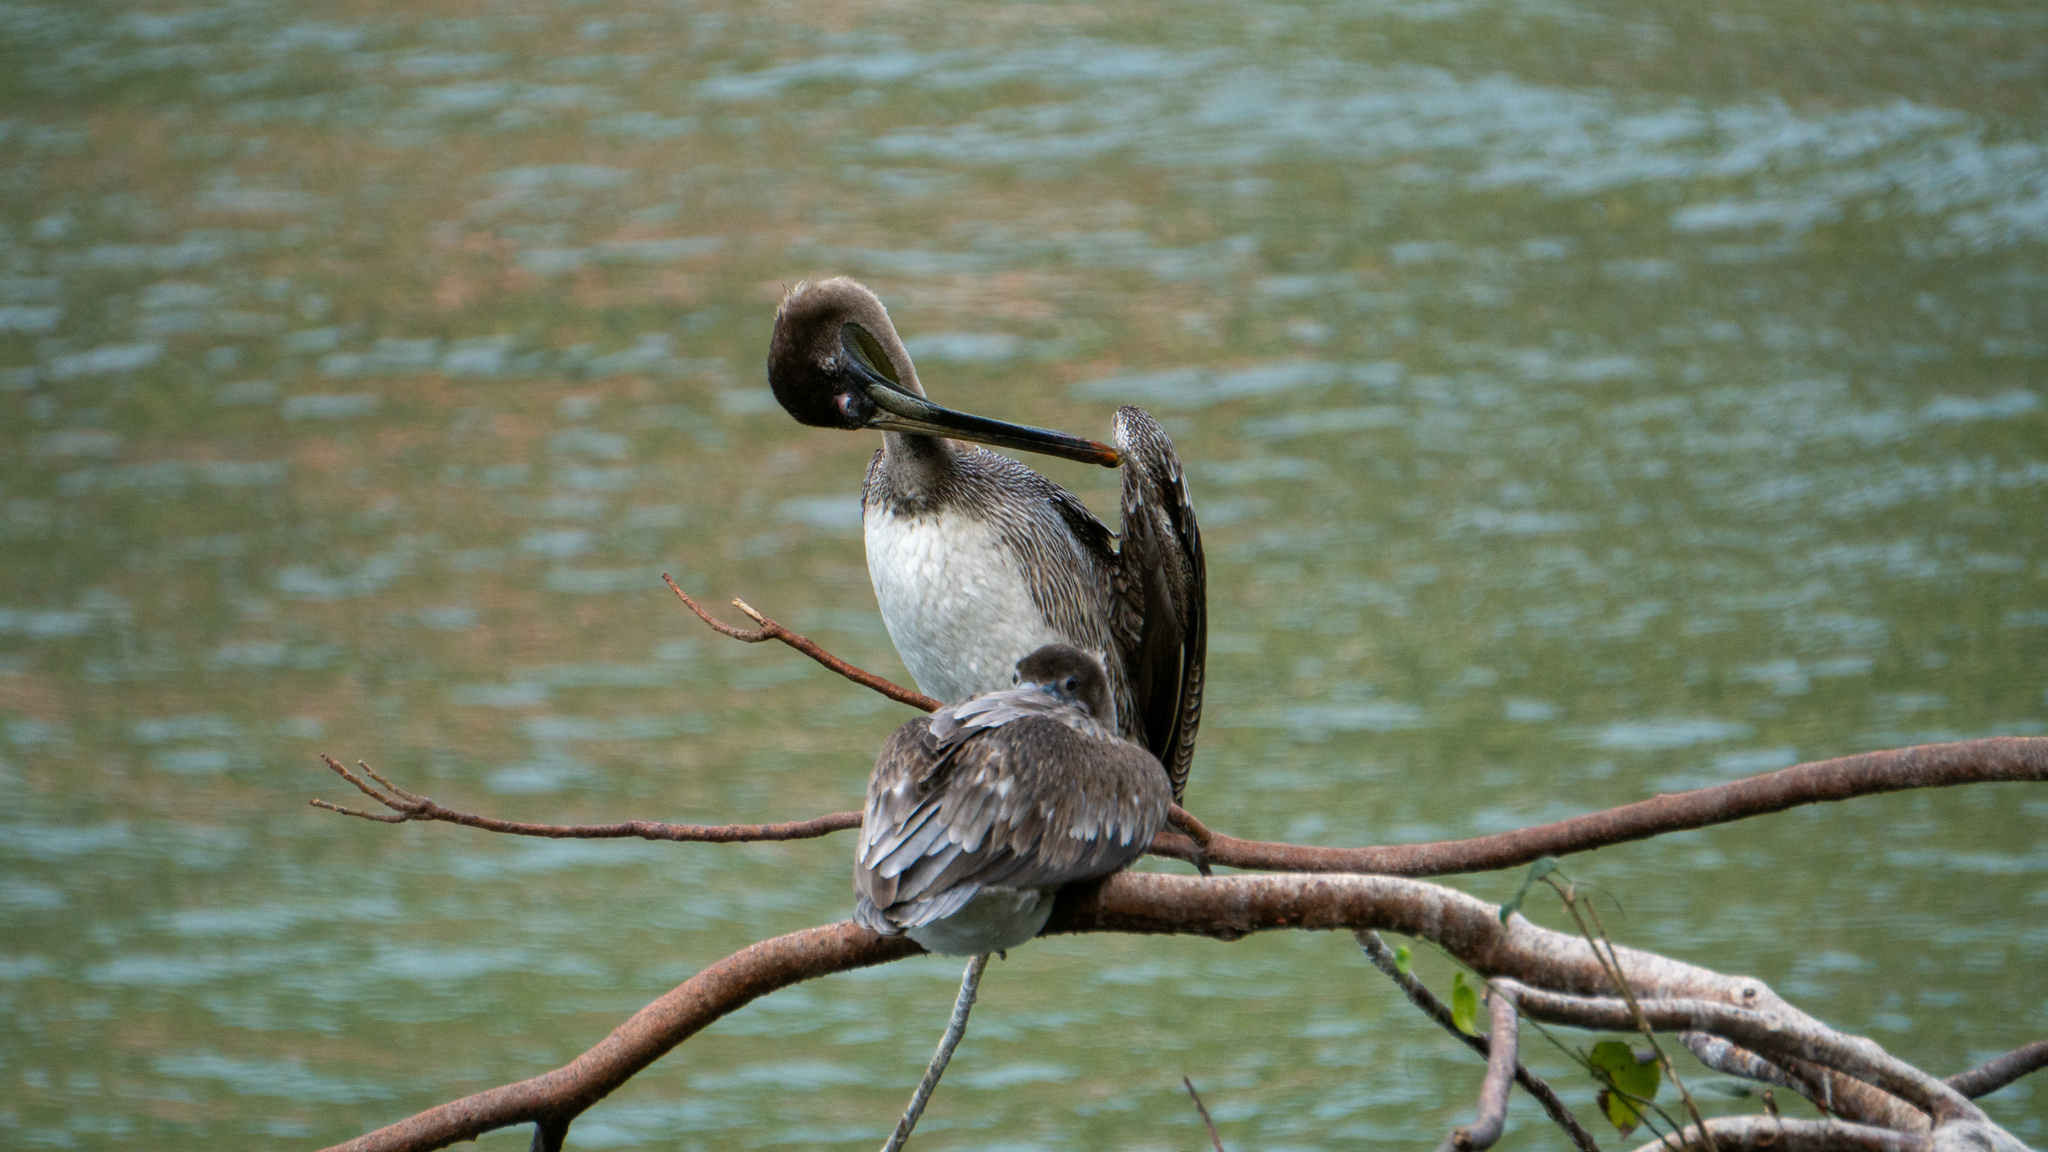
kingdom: Animalia
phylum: Chordata
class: Aves
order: Pelecaniformes
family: Pelecanidae
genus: Pelecanus
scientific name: Pelecanus occidentalis
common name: Brown pelican
